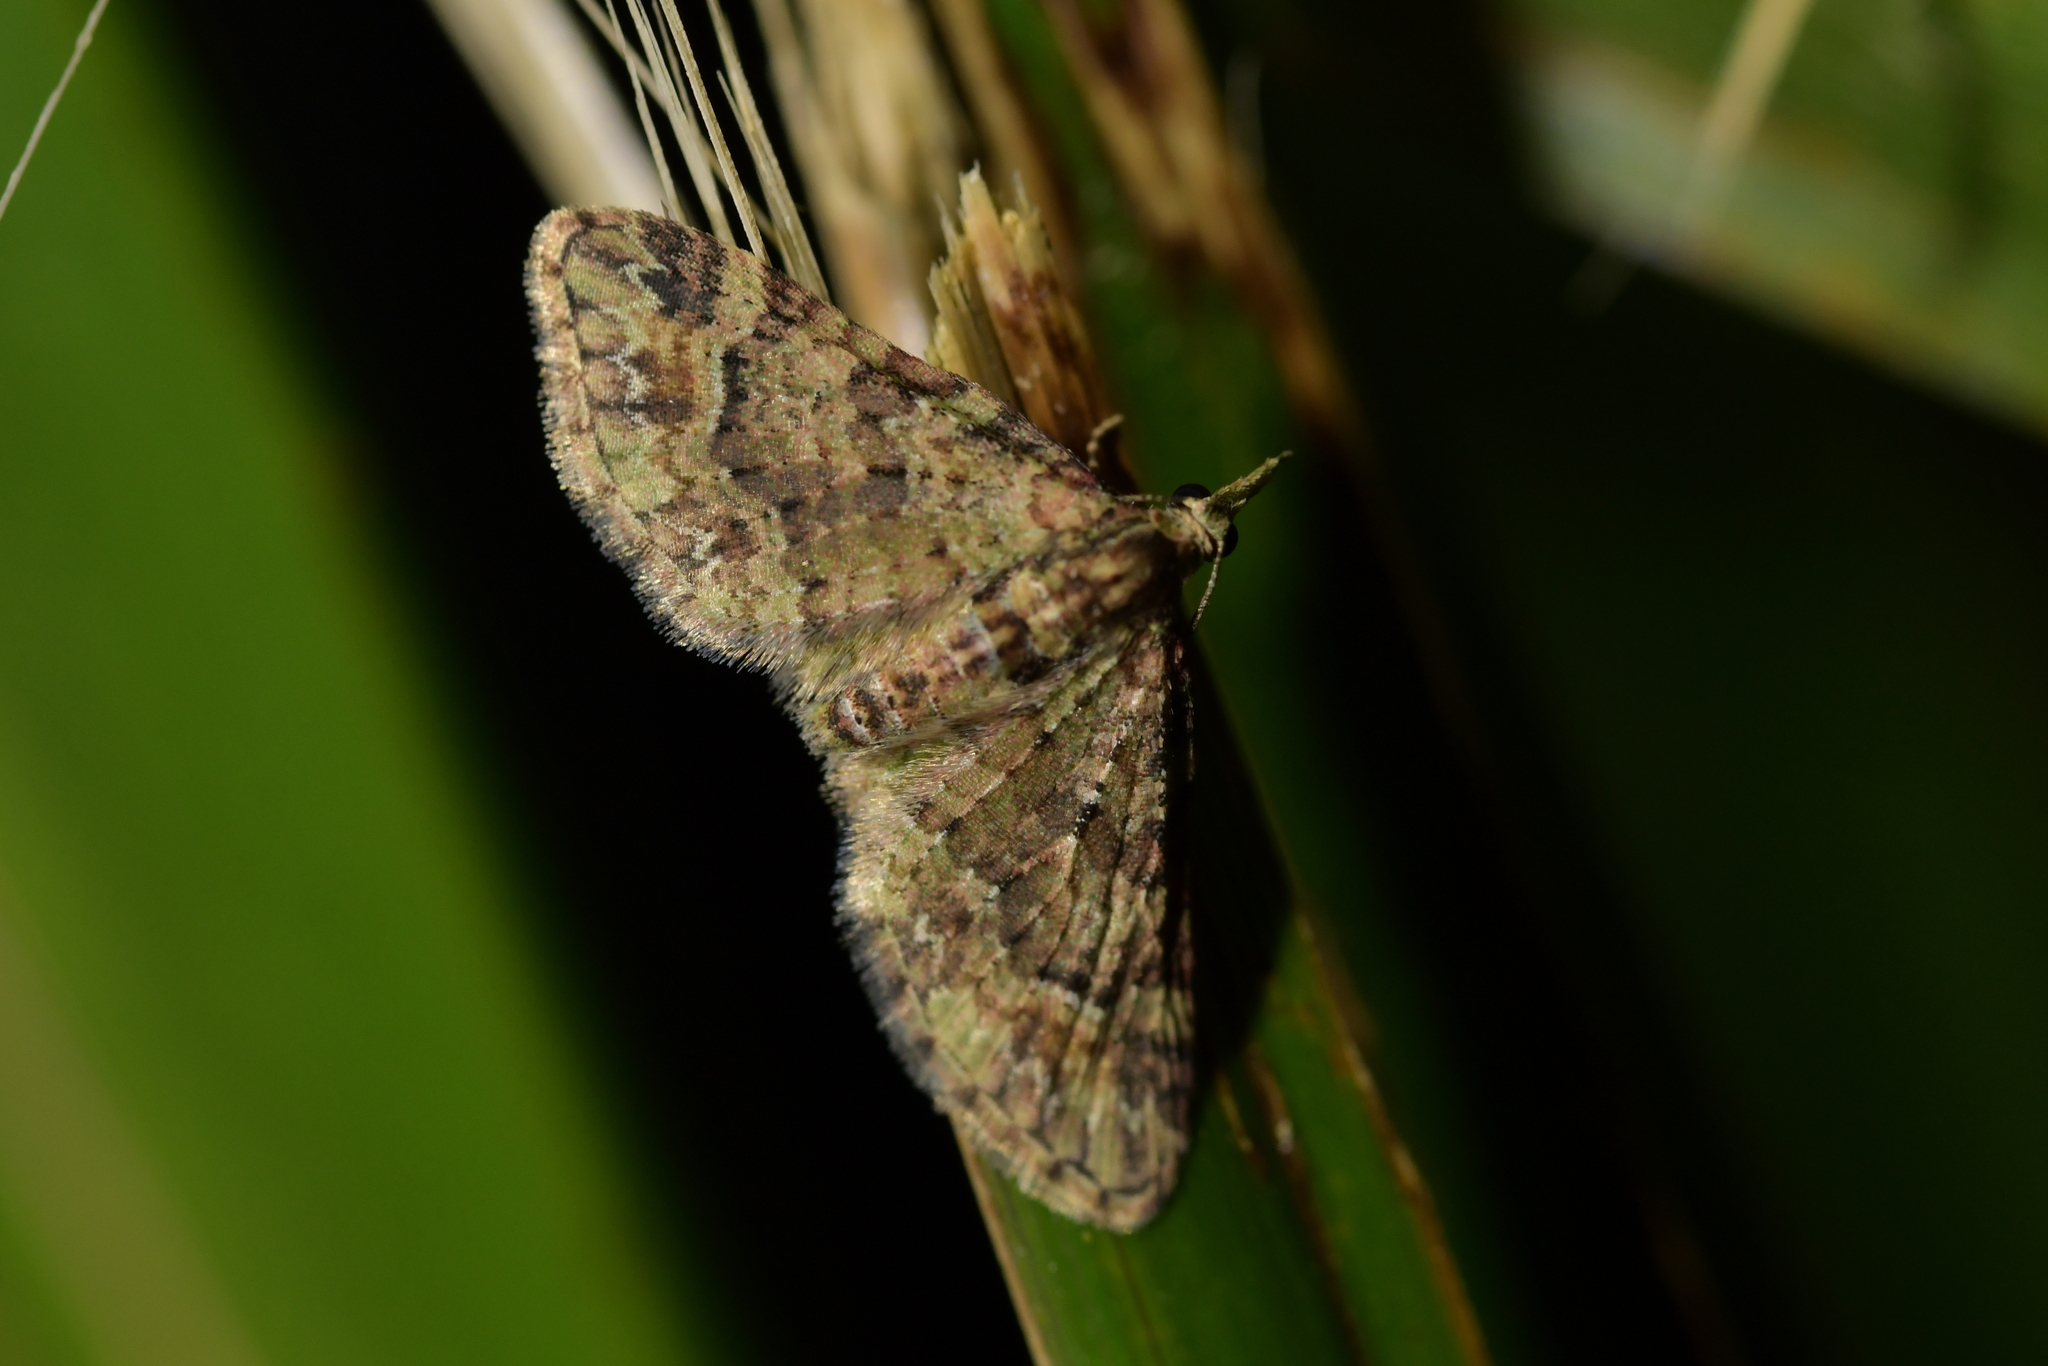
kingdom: Animalia
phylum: Arthropoda
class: Insecta
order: Lepidoptera
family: Geometridae
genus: Pasiphila
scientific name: Pasiphila plinthina
